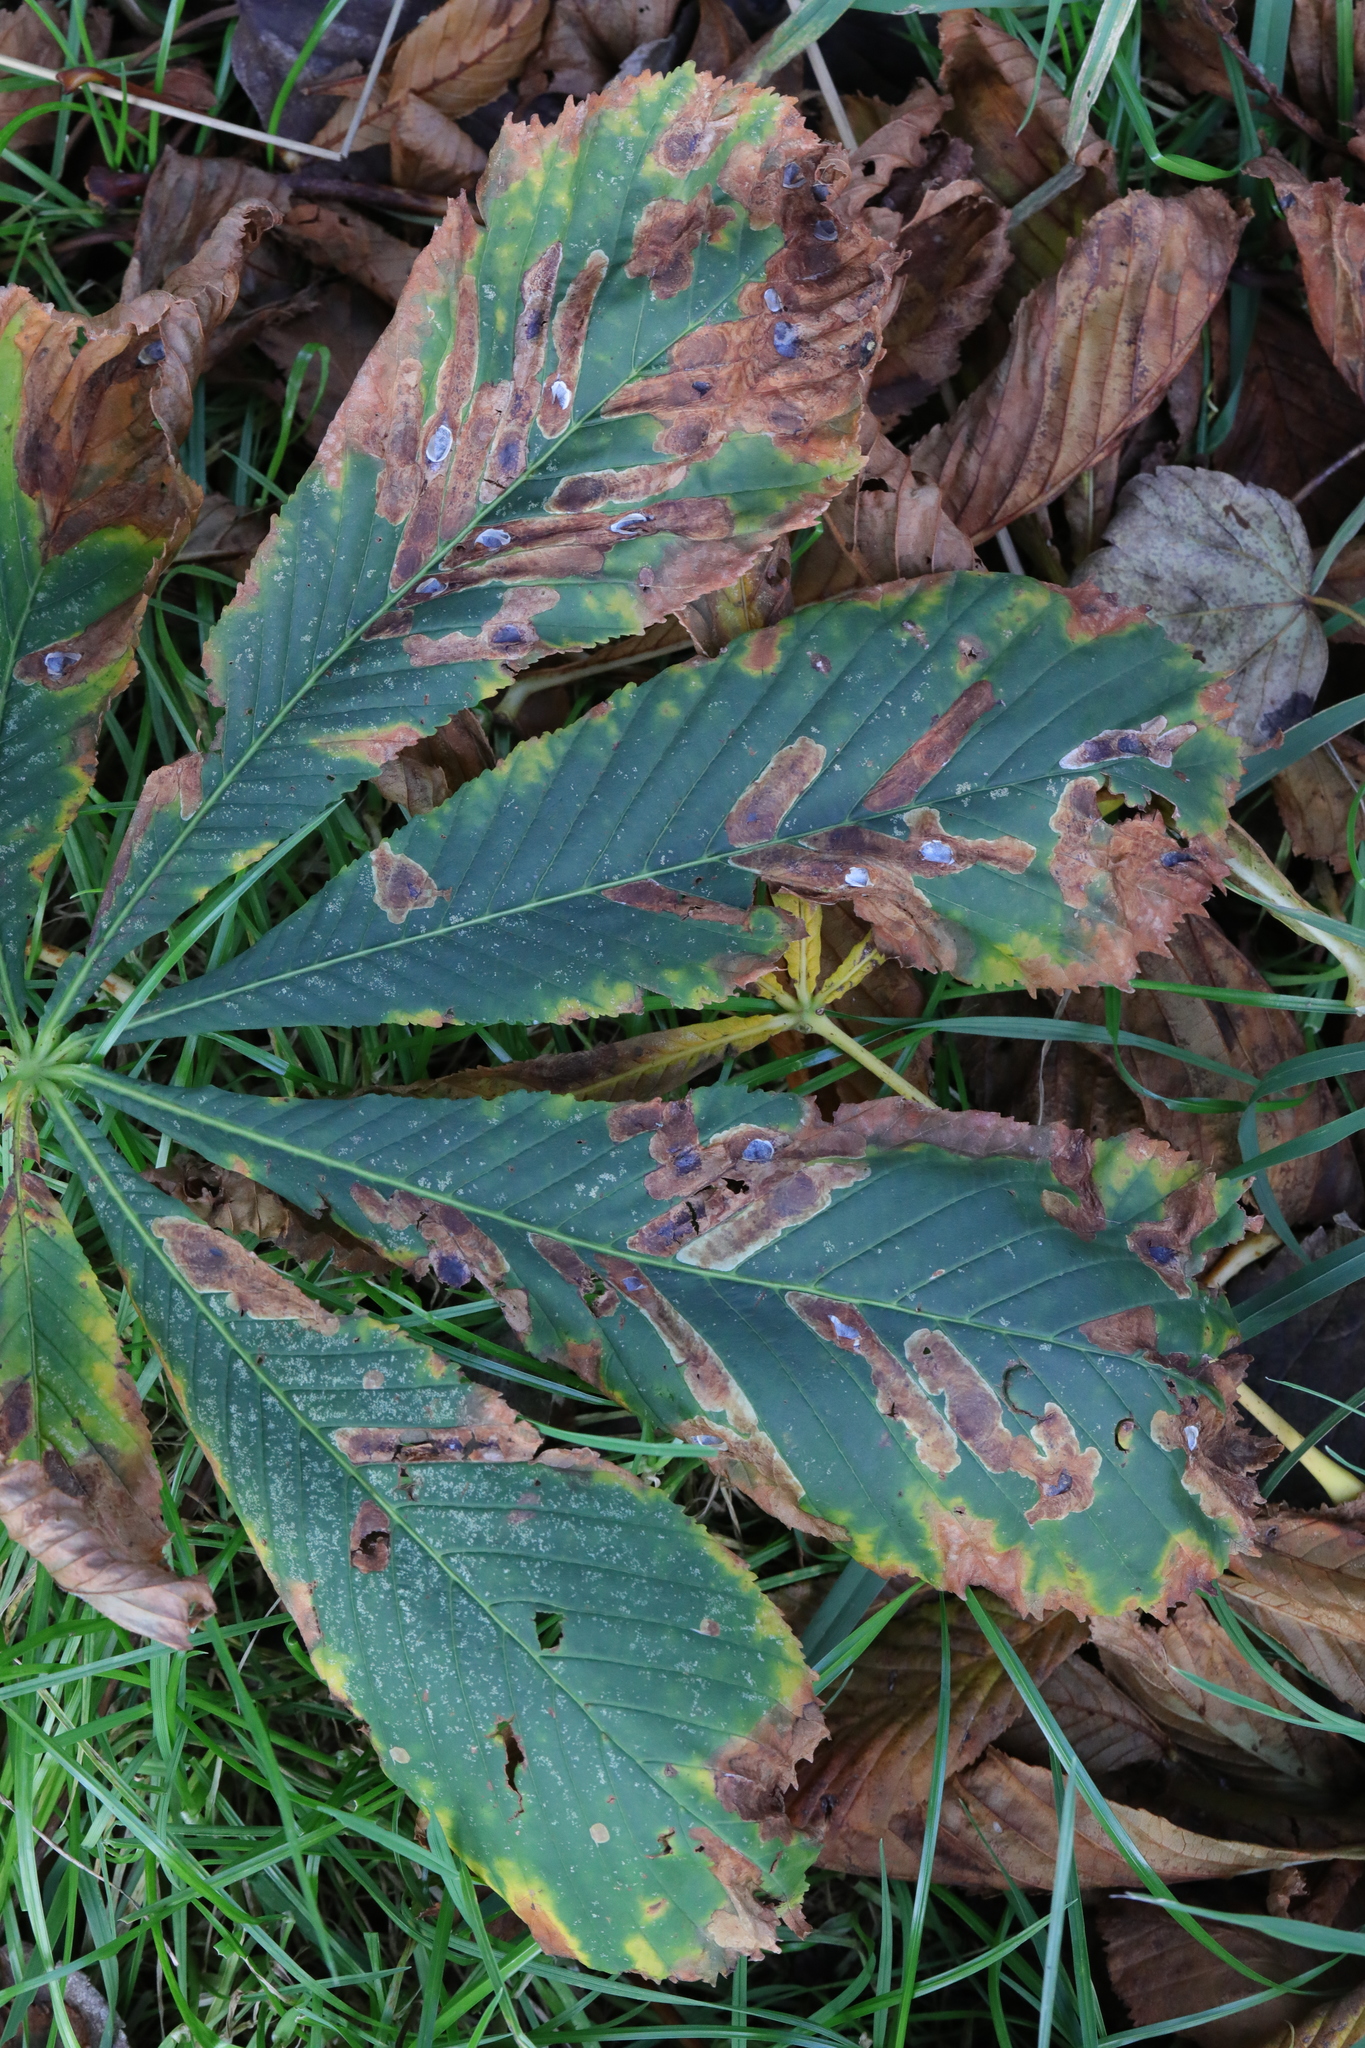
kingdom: Animalia
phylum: Arthropoda
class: Insecta
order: Lepidoptera
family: Gracillariidae
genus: Cameraria
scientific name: Cameraria ohridella
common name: Horse-chestnut leaf-miner
